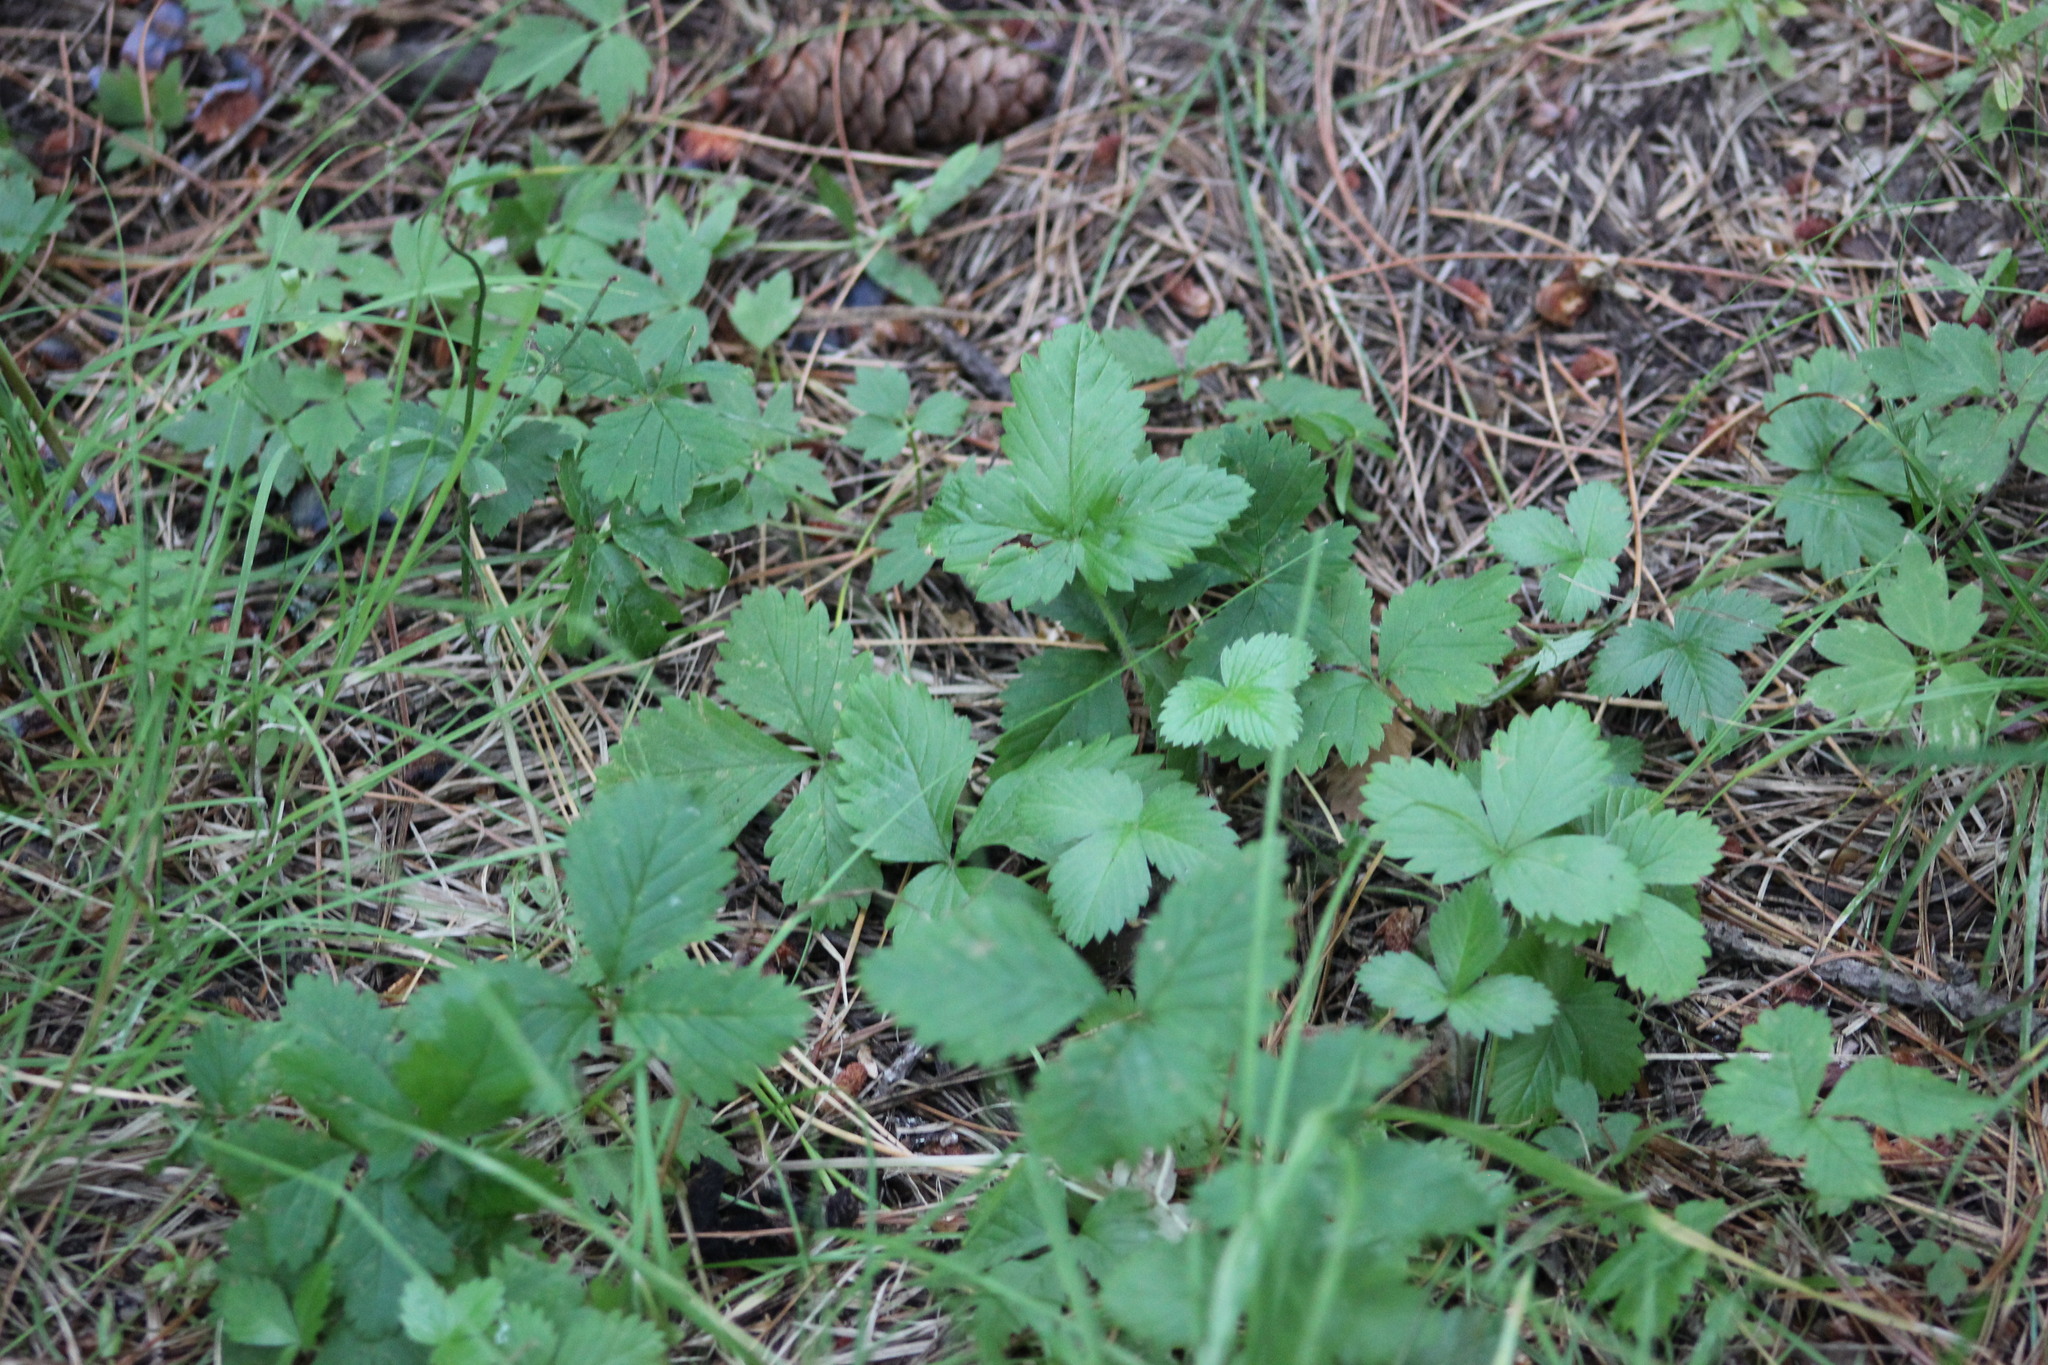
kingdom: Plantae
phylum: Tracheophyta
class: Magnoliopsida
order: Rosales
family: Rosaceae
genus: Fragaria
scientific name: Fragaria vesca
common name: Wild strawberry
